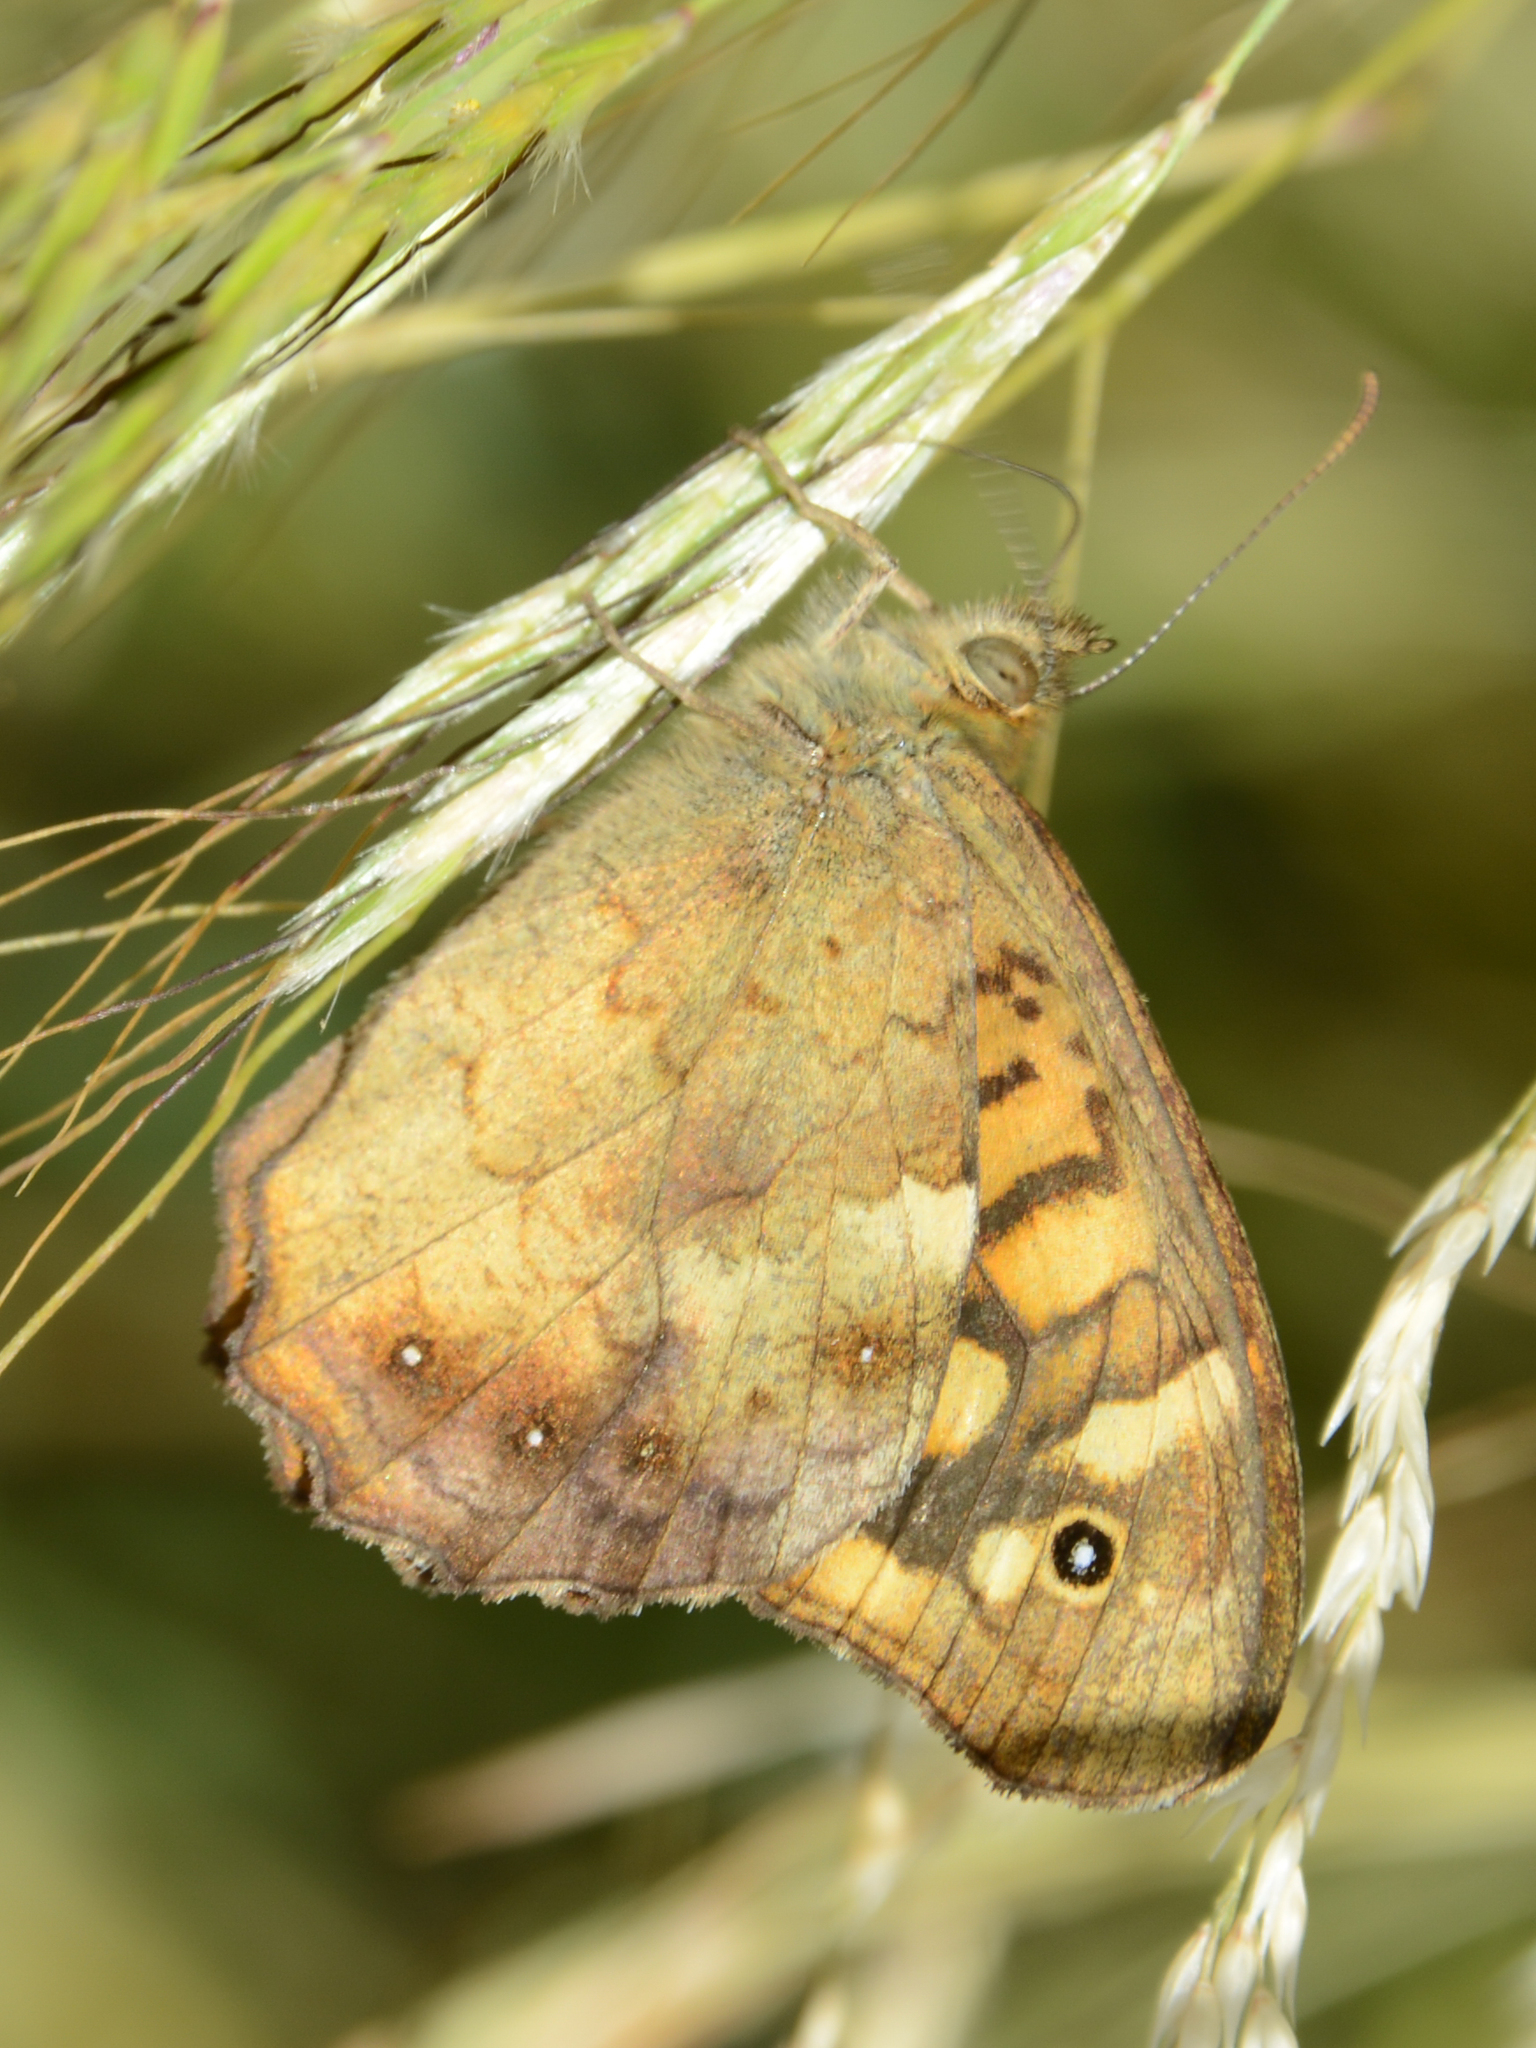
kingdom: Animalia
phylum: Arthropoda
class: Insecta
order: Lepidoptera
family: Nymphalidae
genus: Pararge
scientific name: Pararge aegeria
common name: Speckled wood
